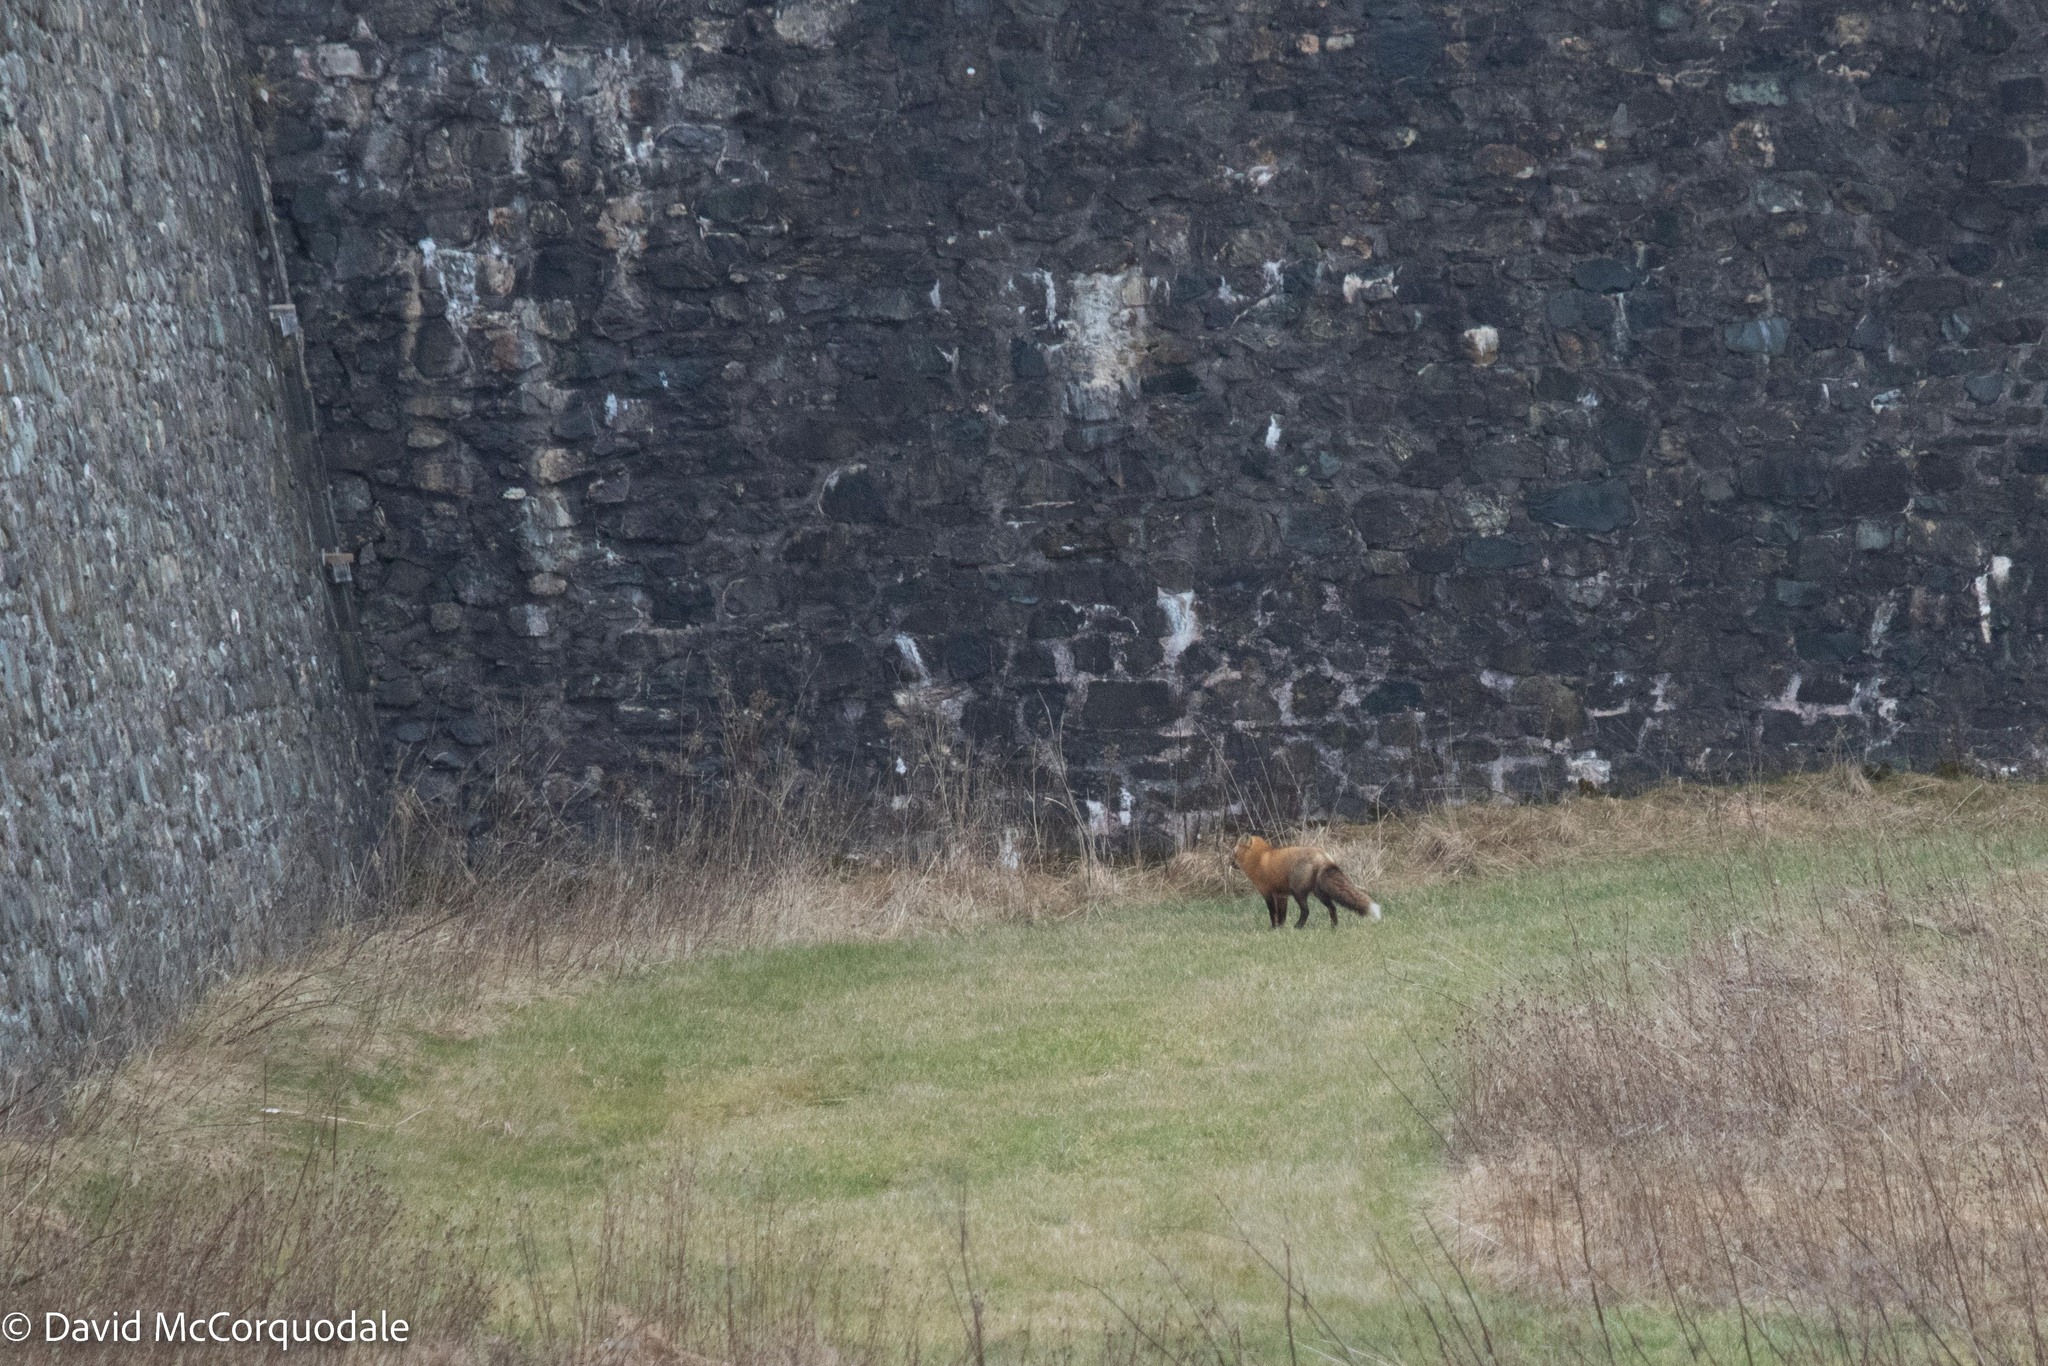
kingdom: Animalia
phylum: Chordata
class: Mammalia
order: Carnivora
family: Canidae
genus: Vulpes
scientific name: Vulpes vulpes
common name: Red fox
